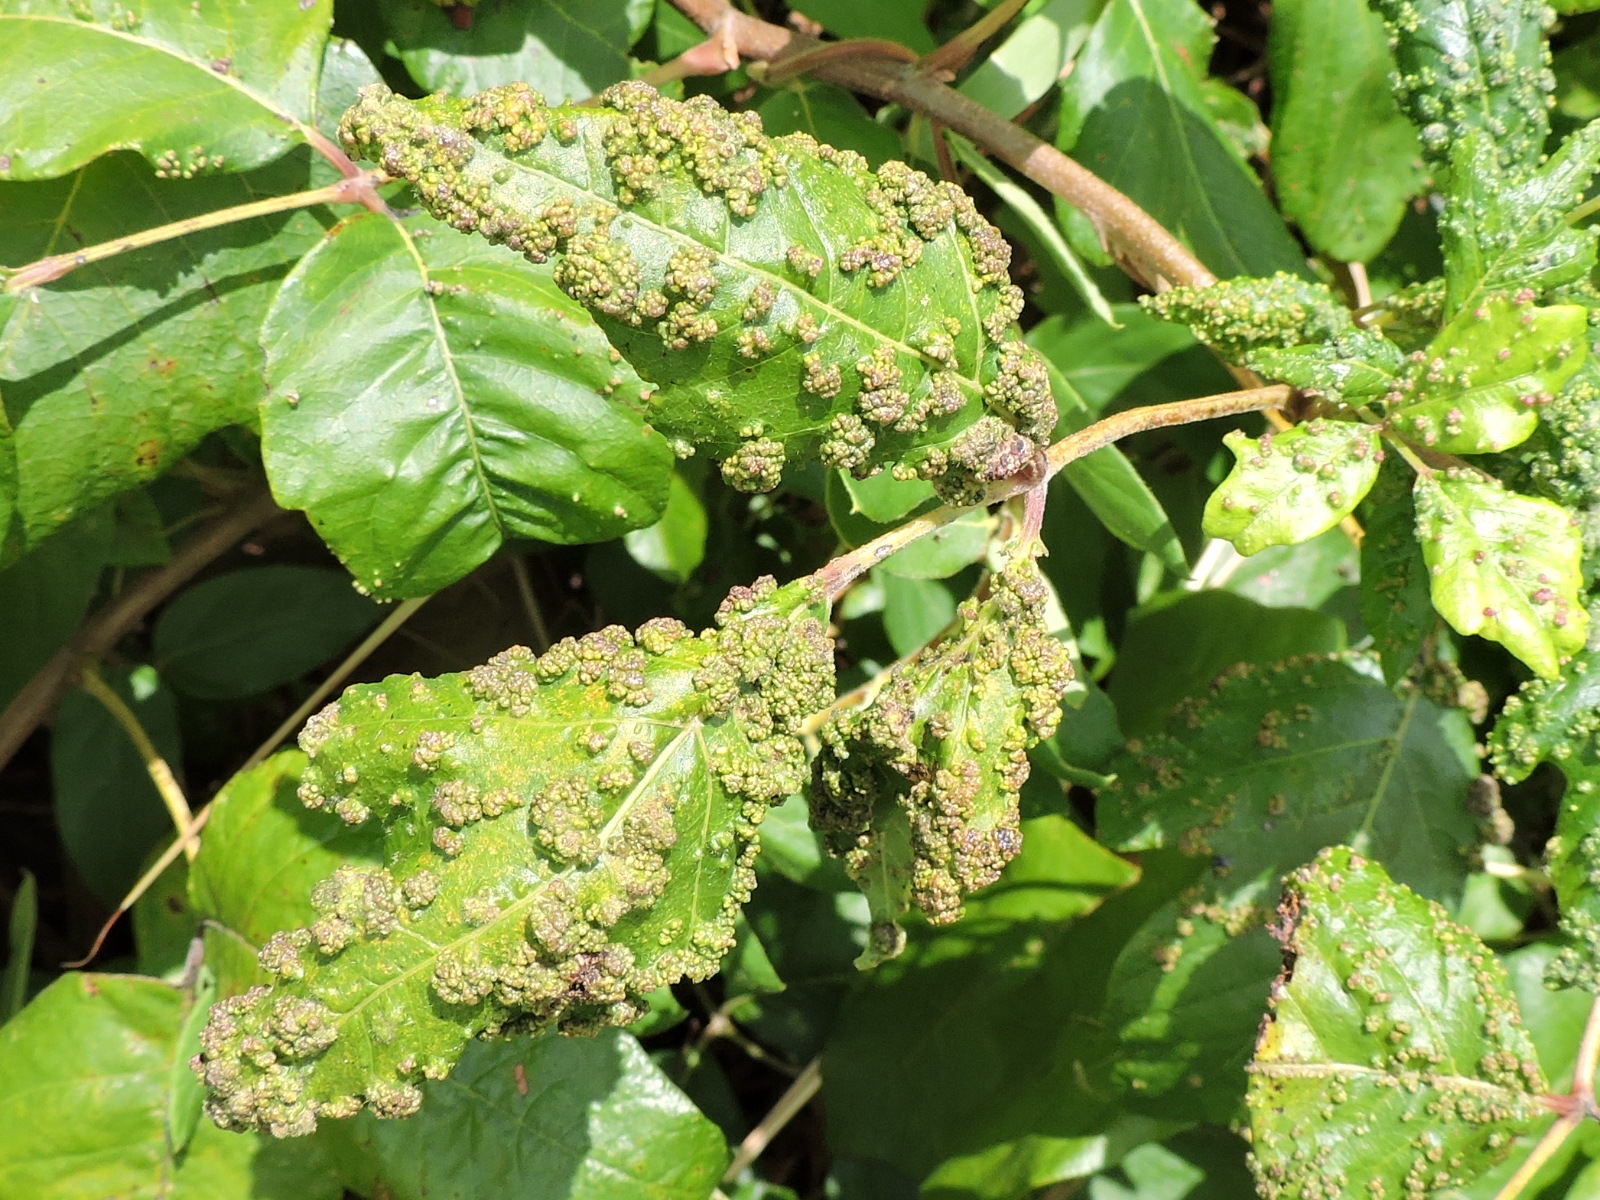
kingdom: Animalia
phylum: Arthropoda
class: Arachnida
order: Trombidiformes
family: Eriophyidae
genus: Aculops
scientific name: Aculops
